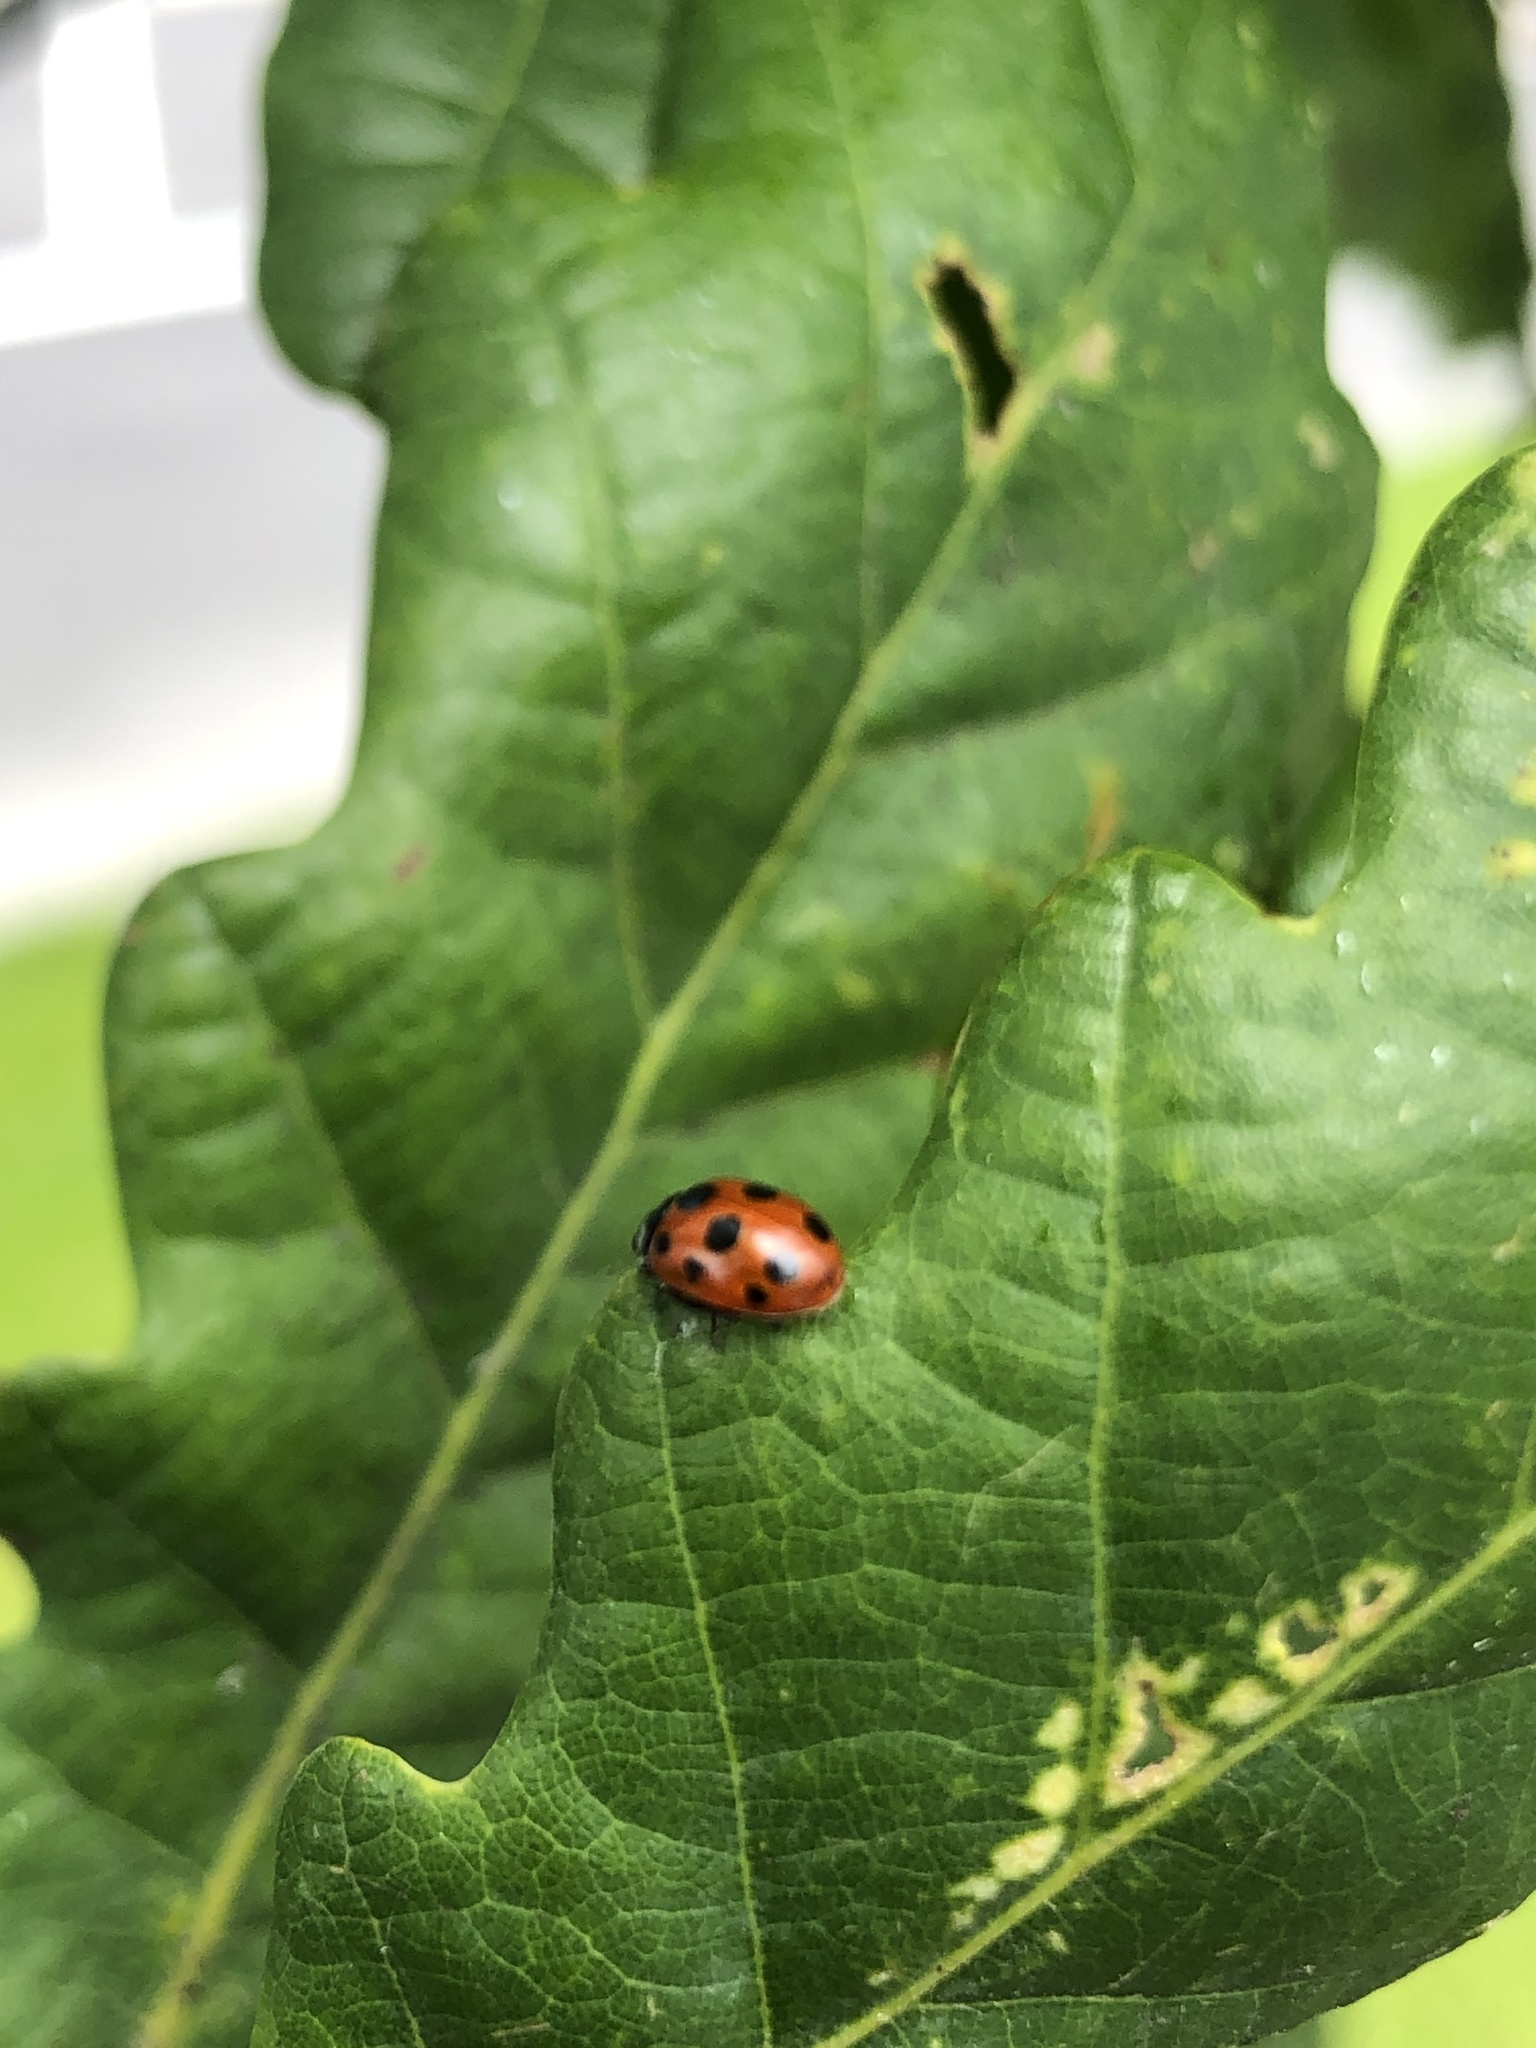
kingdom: Animalia
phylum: Arthropoda
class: Insecta
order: Coleoptera
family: Coccinellidae
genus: Coccinella
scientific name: Coccinella undecimpunctata
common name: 11-spot ladybird
